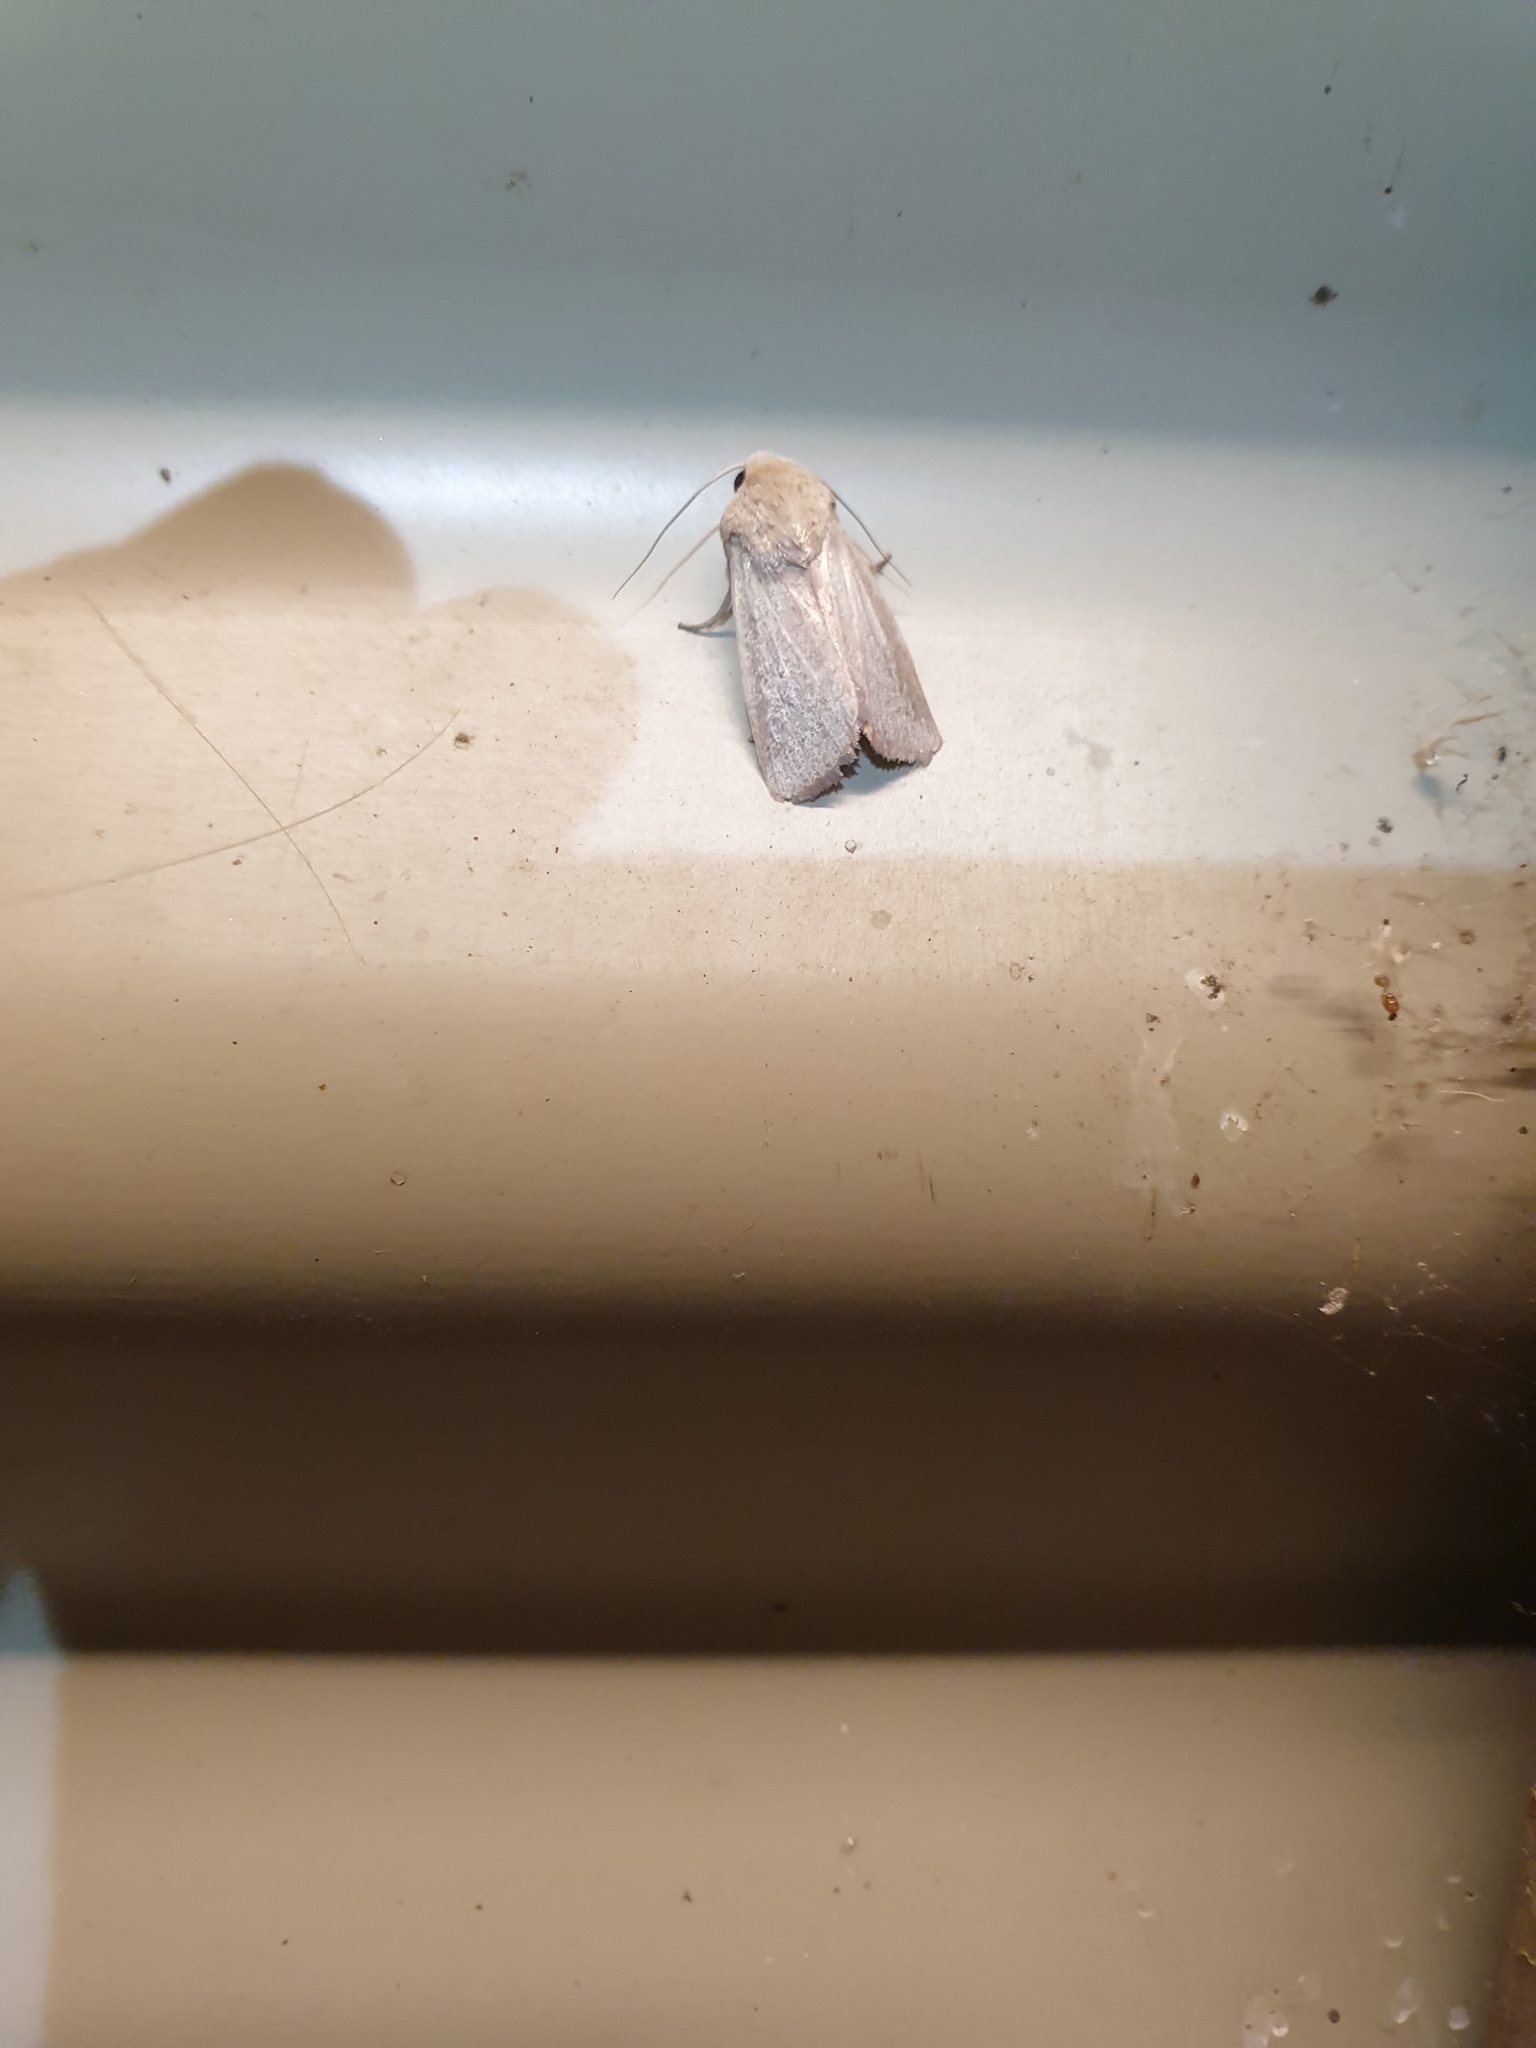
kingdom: Animalia
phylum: Arthropoda
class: Insecta
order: Lepidoptera
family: Noctuidae
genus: Leucania
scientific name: Leucania dasycnema
